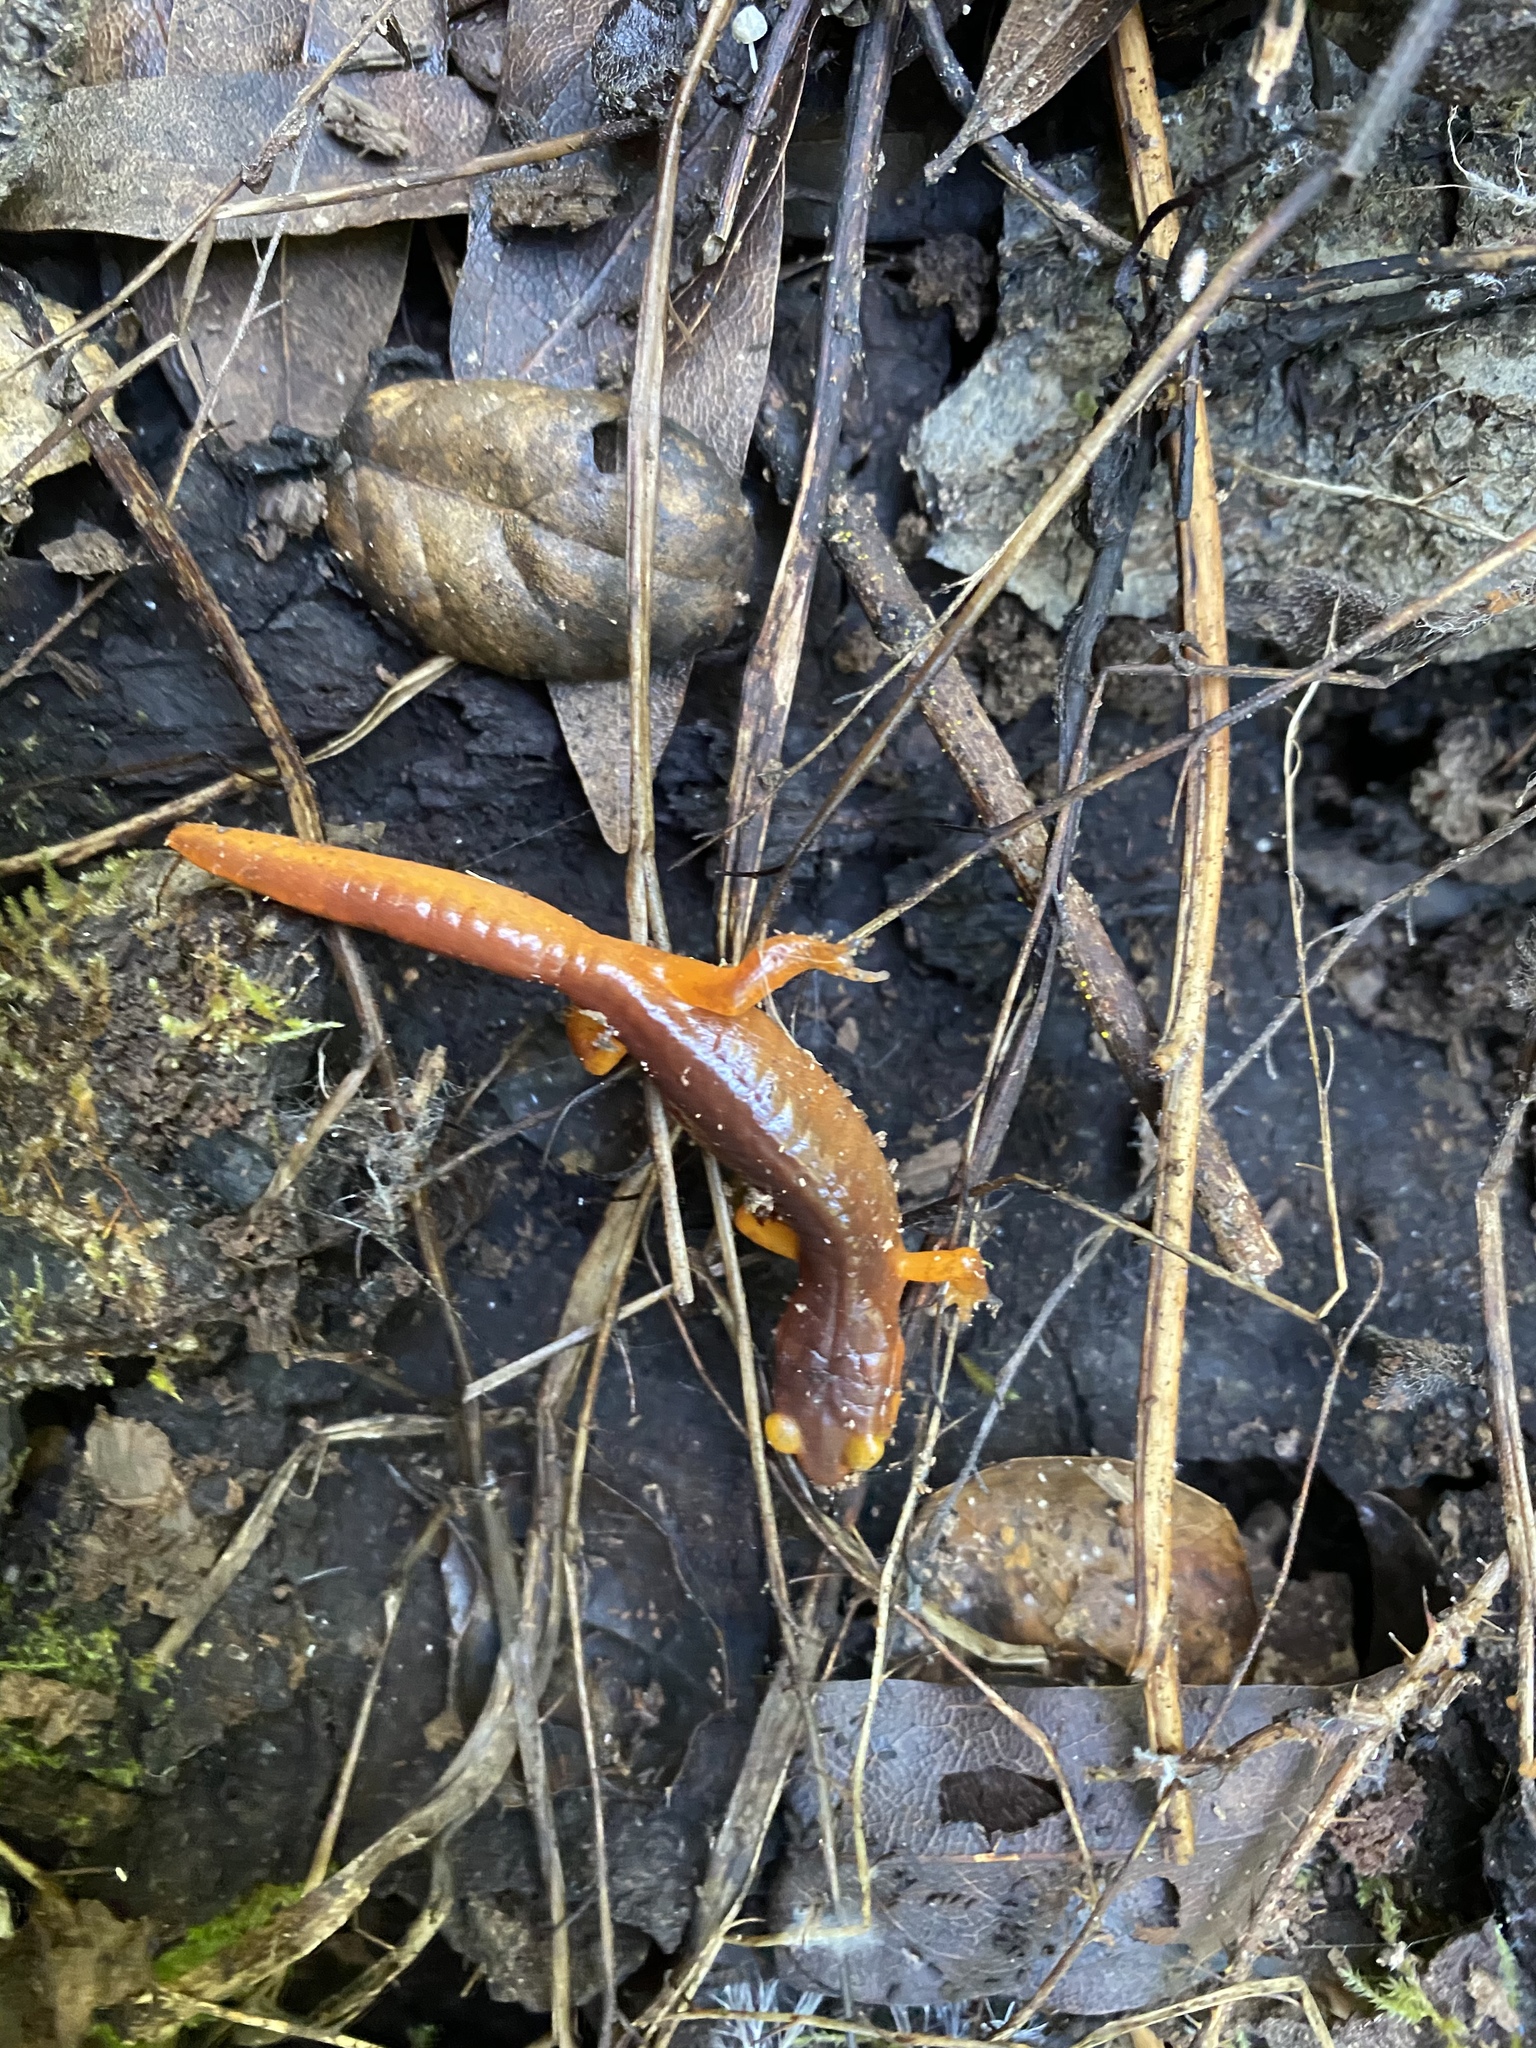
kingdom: Animalia
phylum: Chordata
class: Amphibia
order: Caudata
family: Plethodontidae
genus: Ensatina
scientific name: Ensatina eschscholtzii
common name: Ensatina
